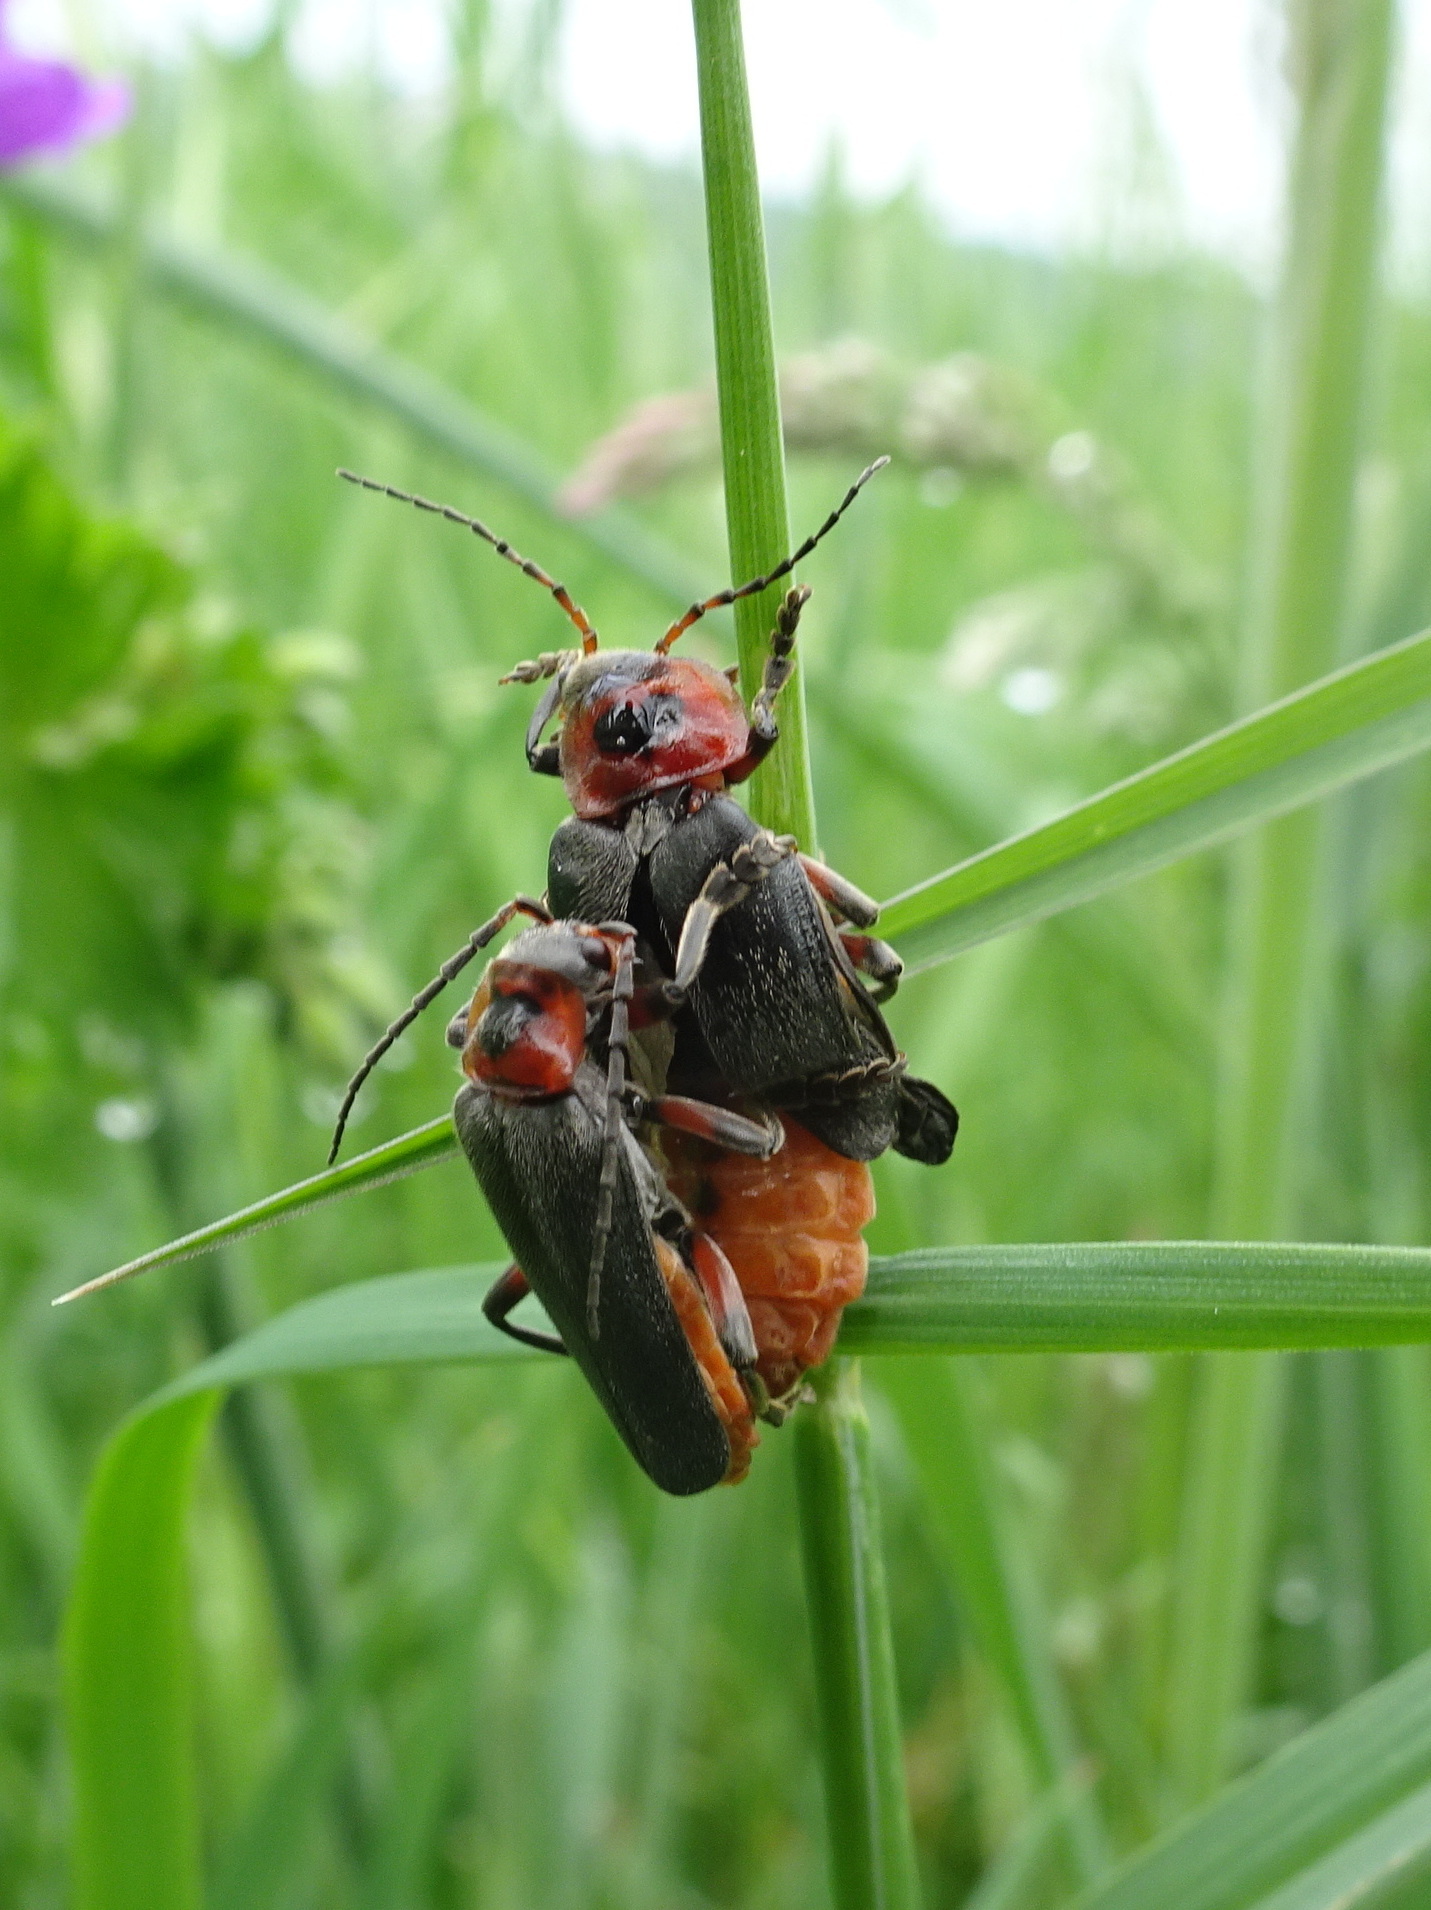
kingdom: Animalia
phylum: Arthropoda
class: Insecta
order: Coleoptera
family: Cantharidae
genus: Cantharis
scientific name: Cantharis rustica
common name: Soldier beetle
